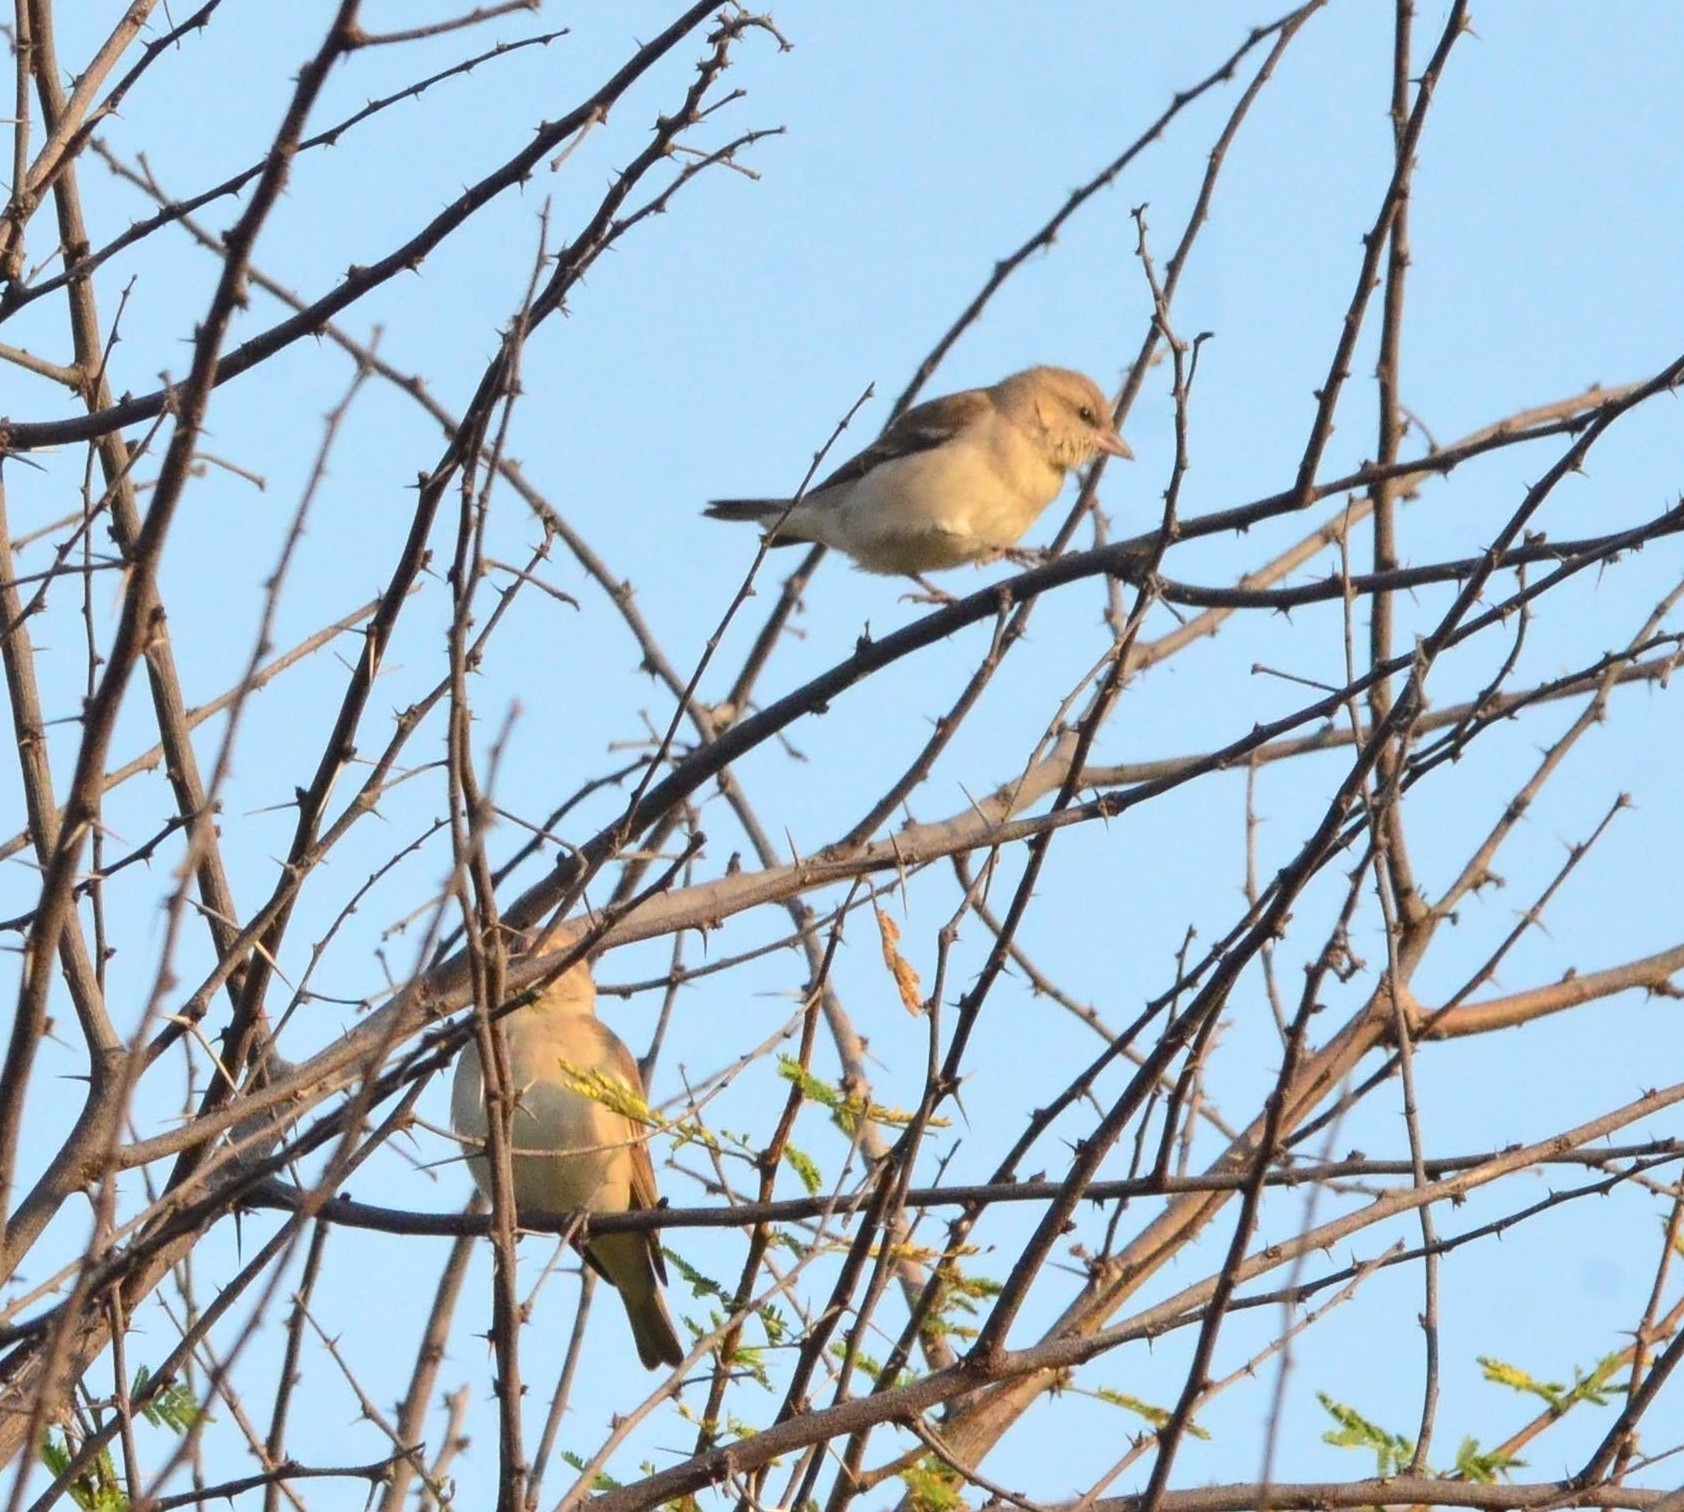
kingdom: Animalia
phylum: Chordata
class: Aves
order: Passeriformes
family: Passeridae
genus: Gymnoris
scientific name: Gymnoris xanthocollis
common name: Yellow-throated sparrow
